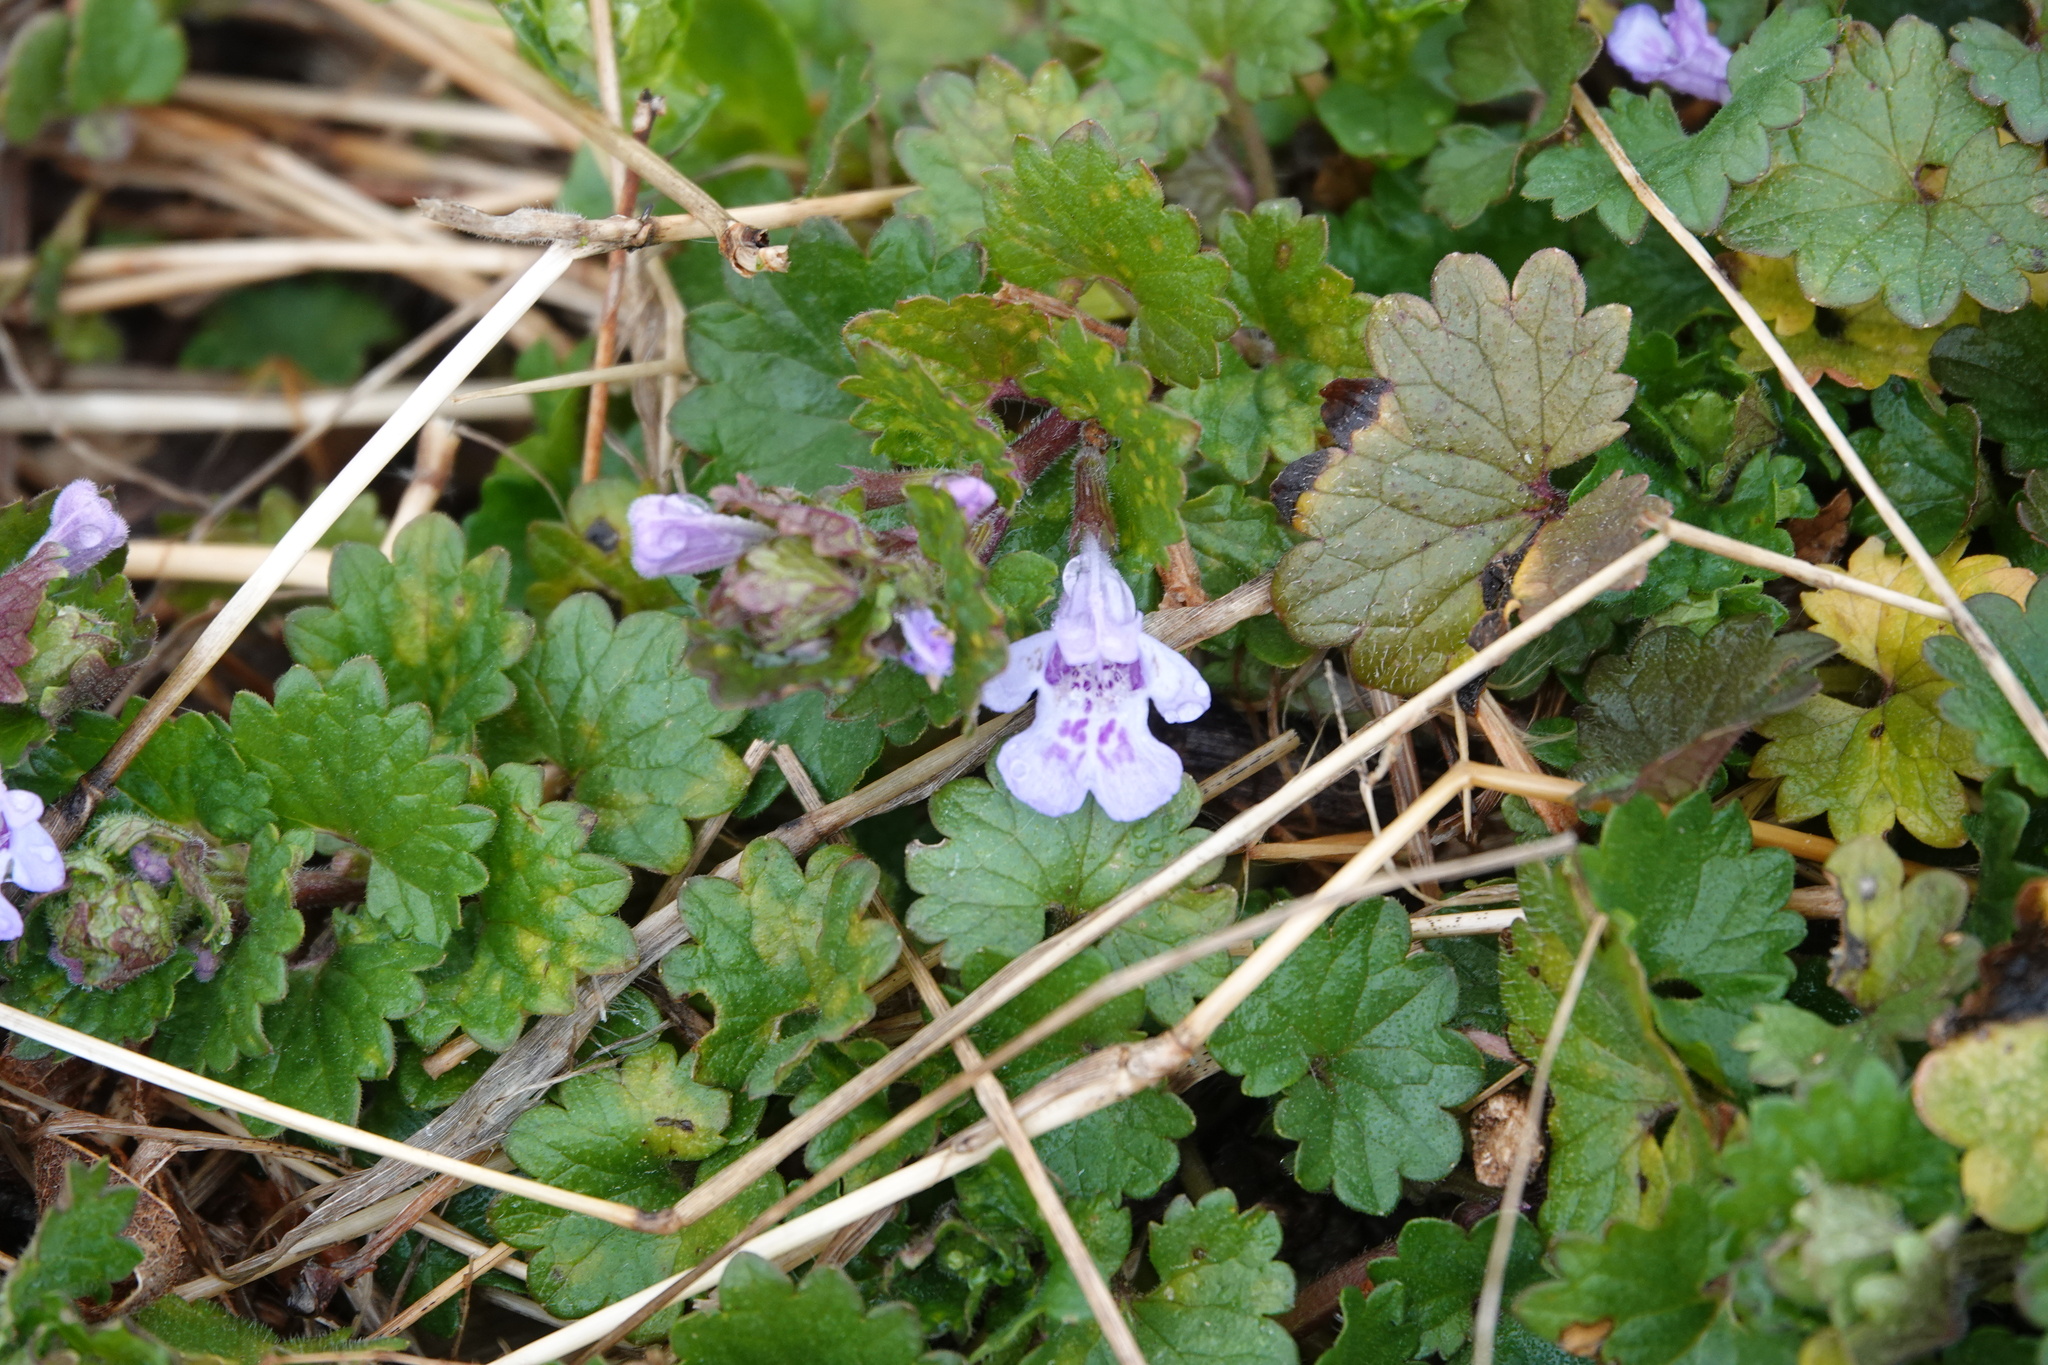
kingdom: Plantae
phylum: Tracheophyta
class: Magnoliopsida
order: Lamiales
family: Lamiaceae
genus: Glechoma
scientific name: Glechoma hederacea
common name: Ground ivy
